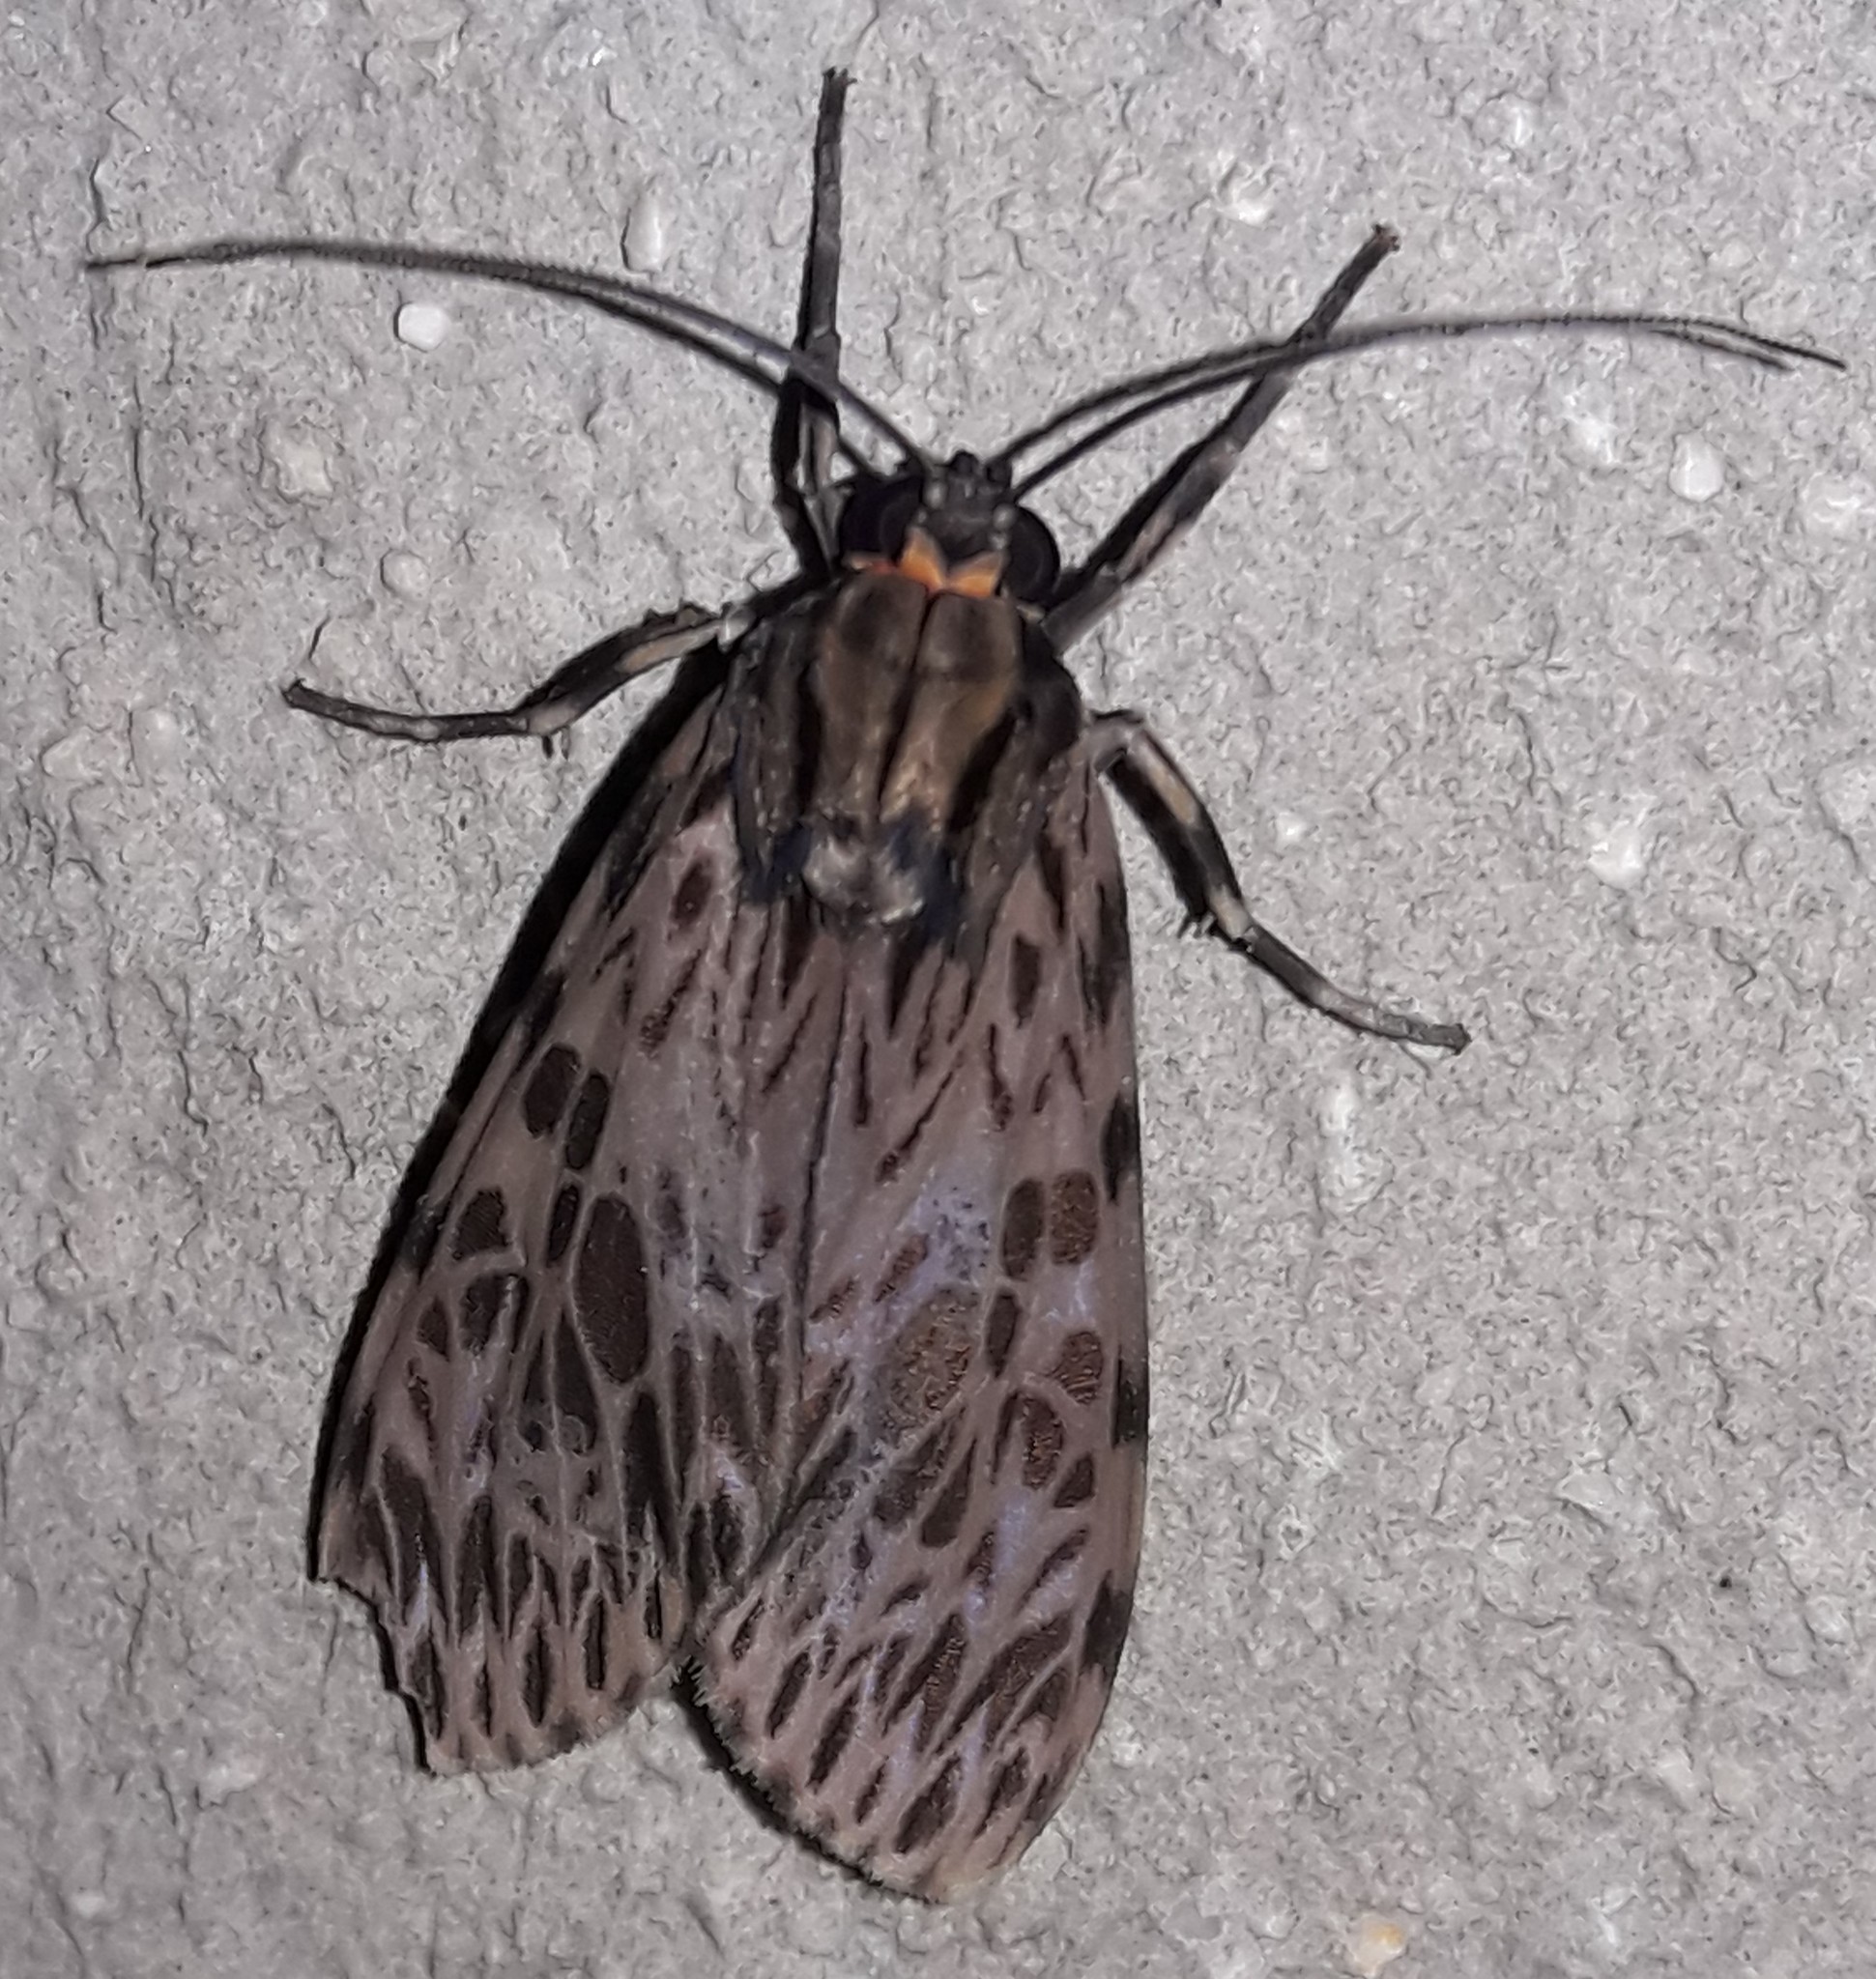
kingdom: Animalia
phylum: Arthropoda
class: Insecta
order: Lepidoptera
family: Erebidae
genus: Eucereon
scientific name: Eucereon aeolum
